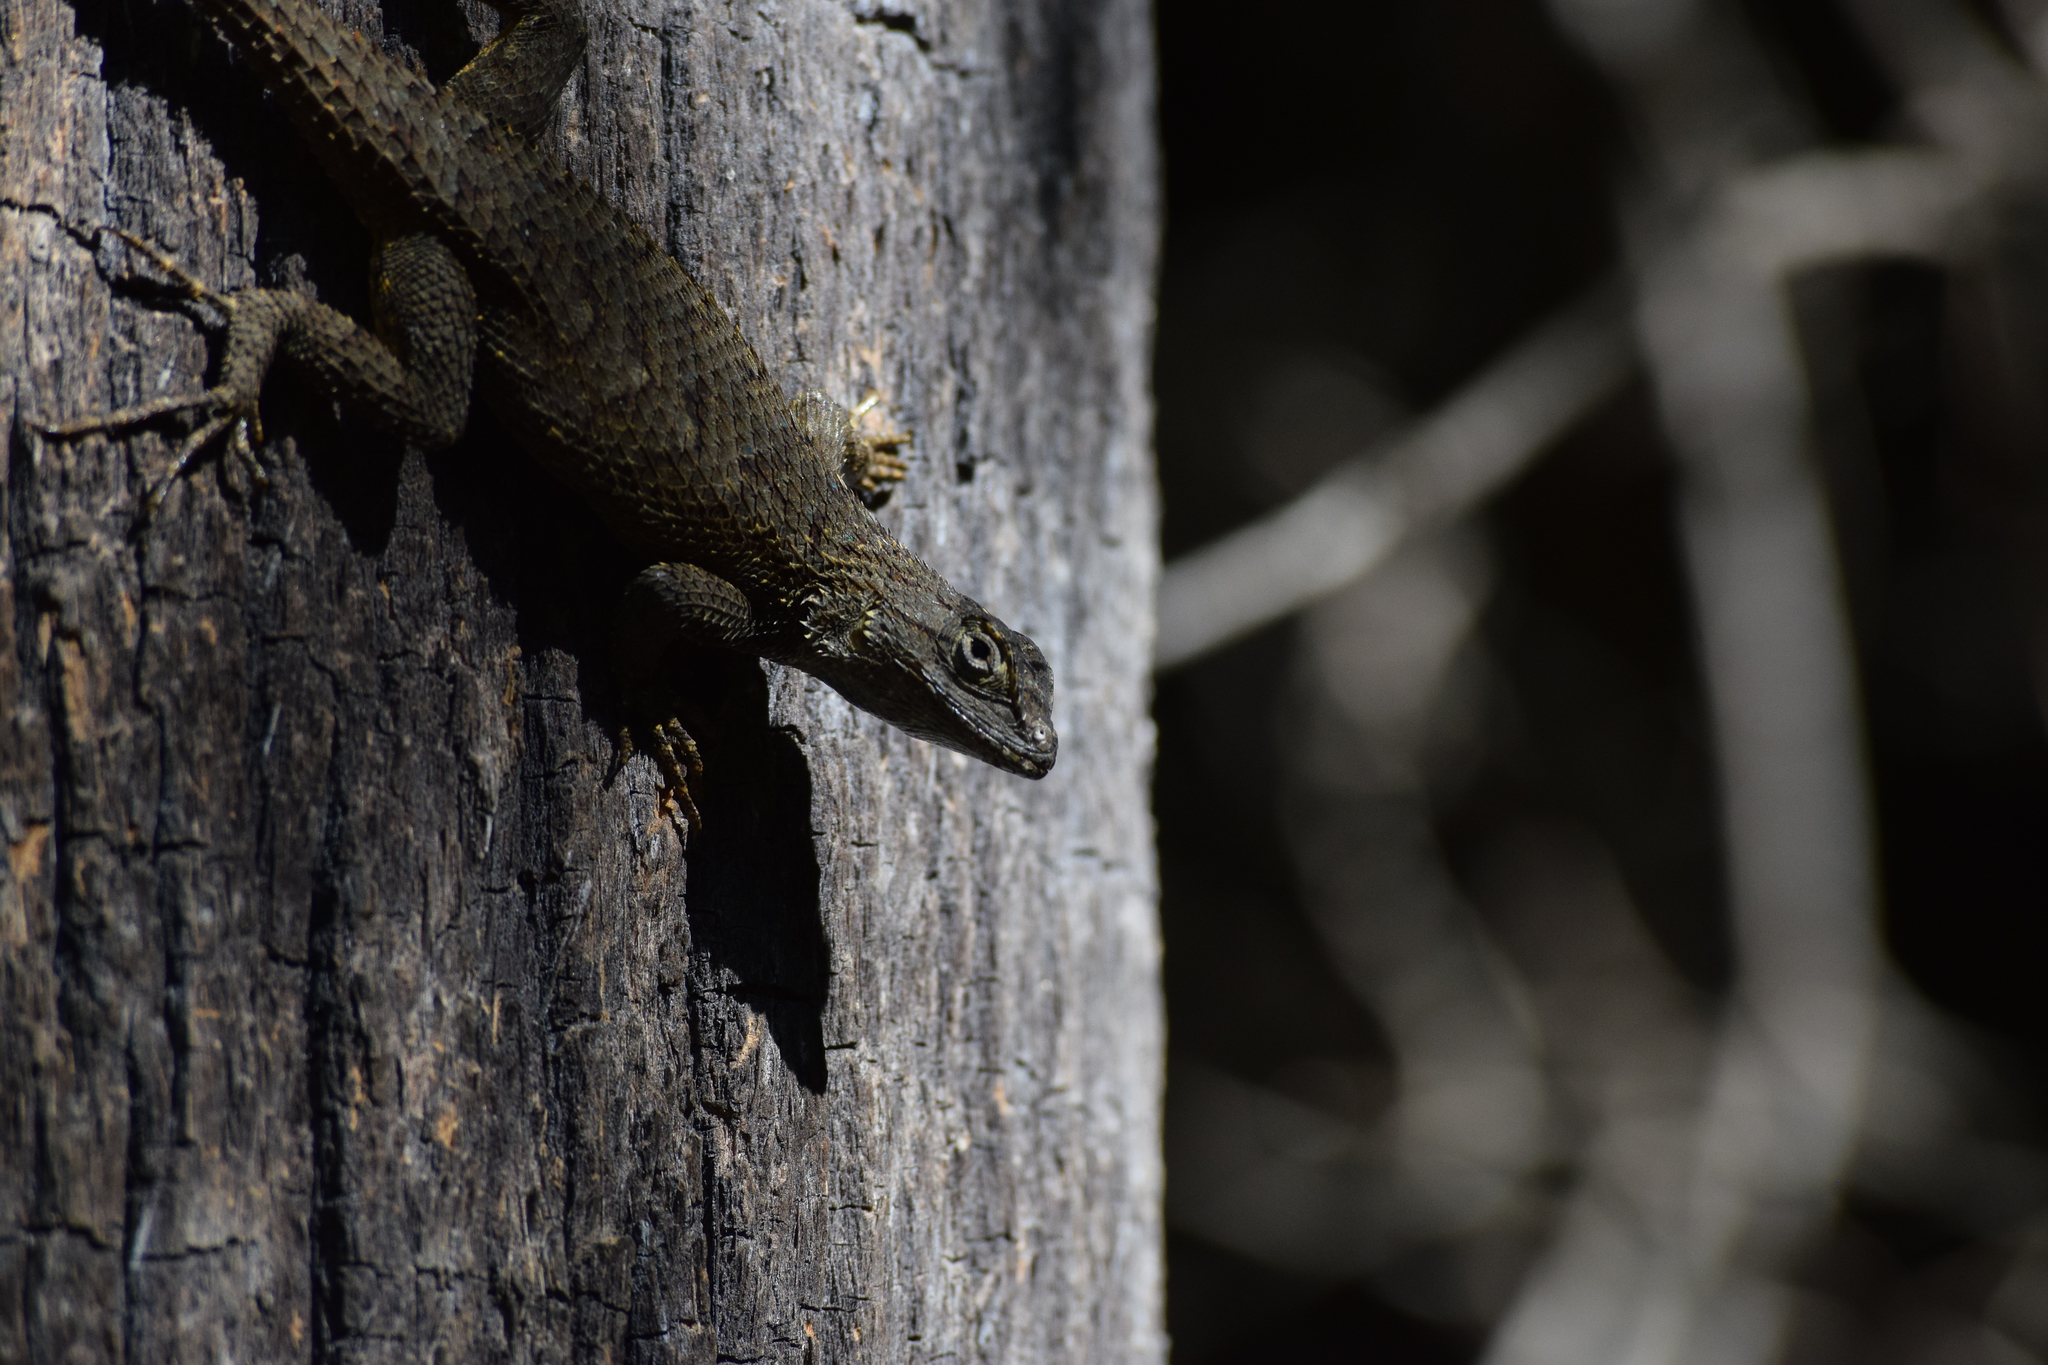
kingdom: Animalia
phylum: Chordata
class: Squamata
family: Phrynosomatidae
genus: Sceloporus
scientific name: Sceloporus occidentalis
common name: Western fence lizard
